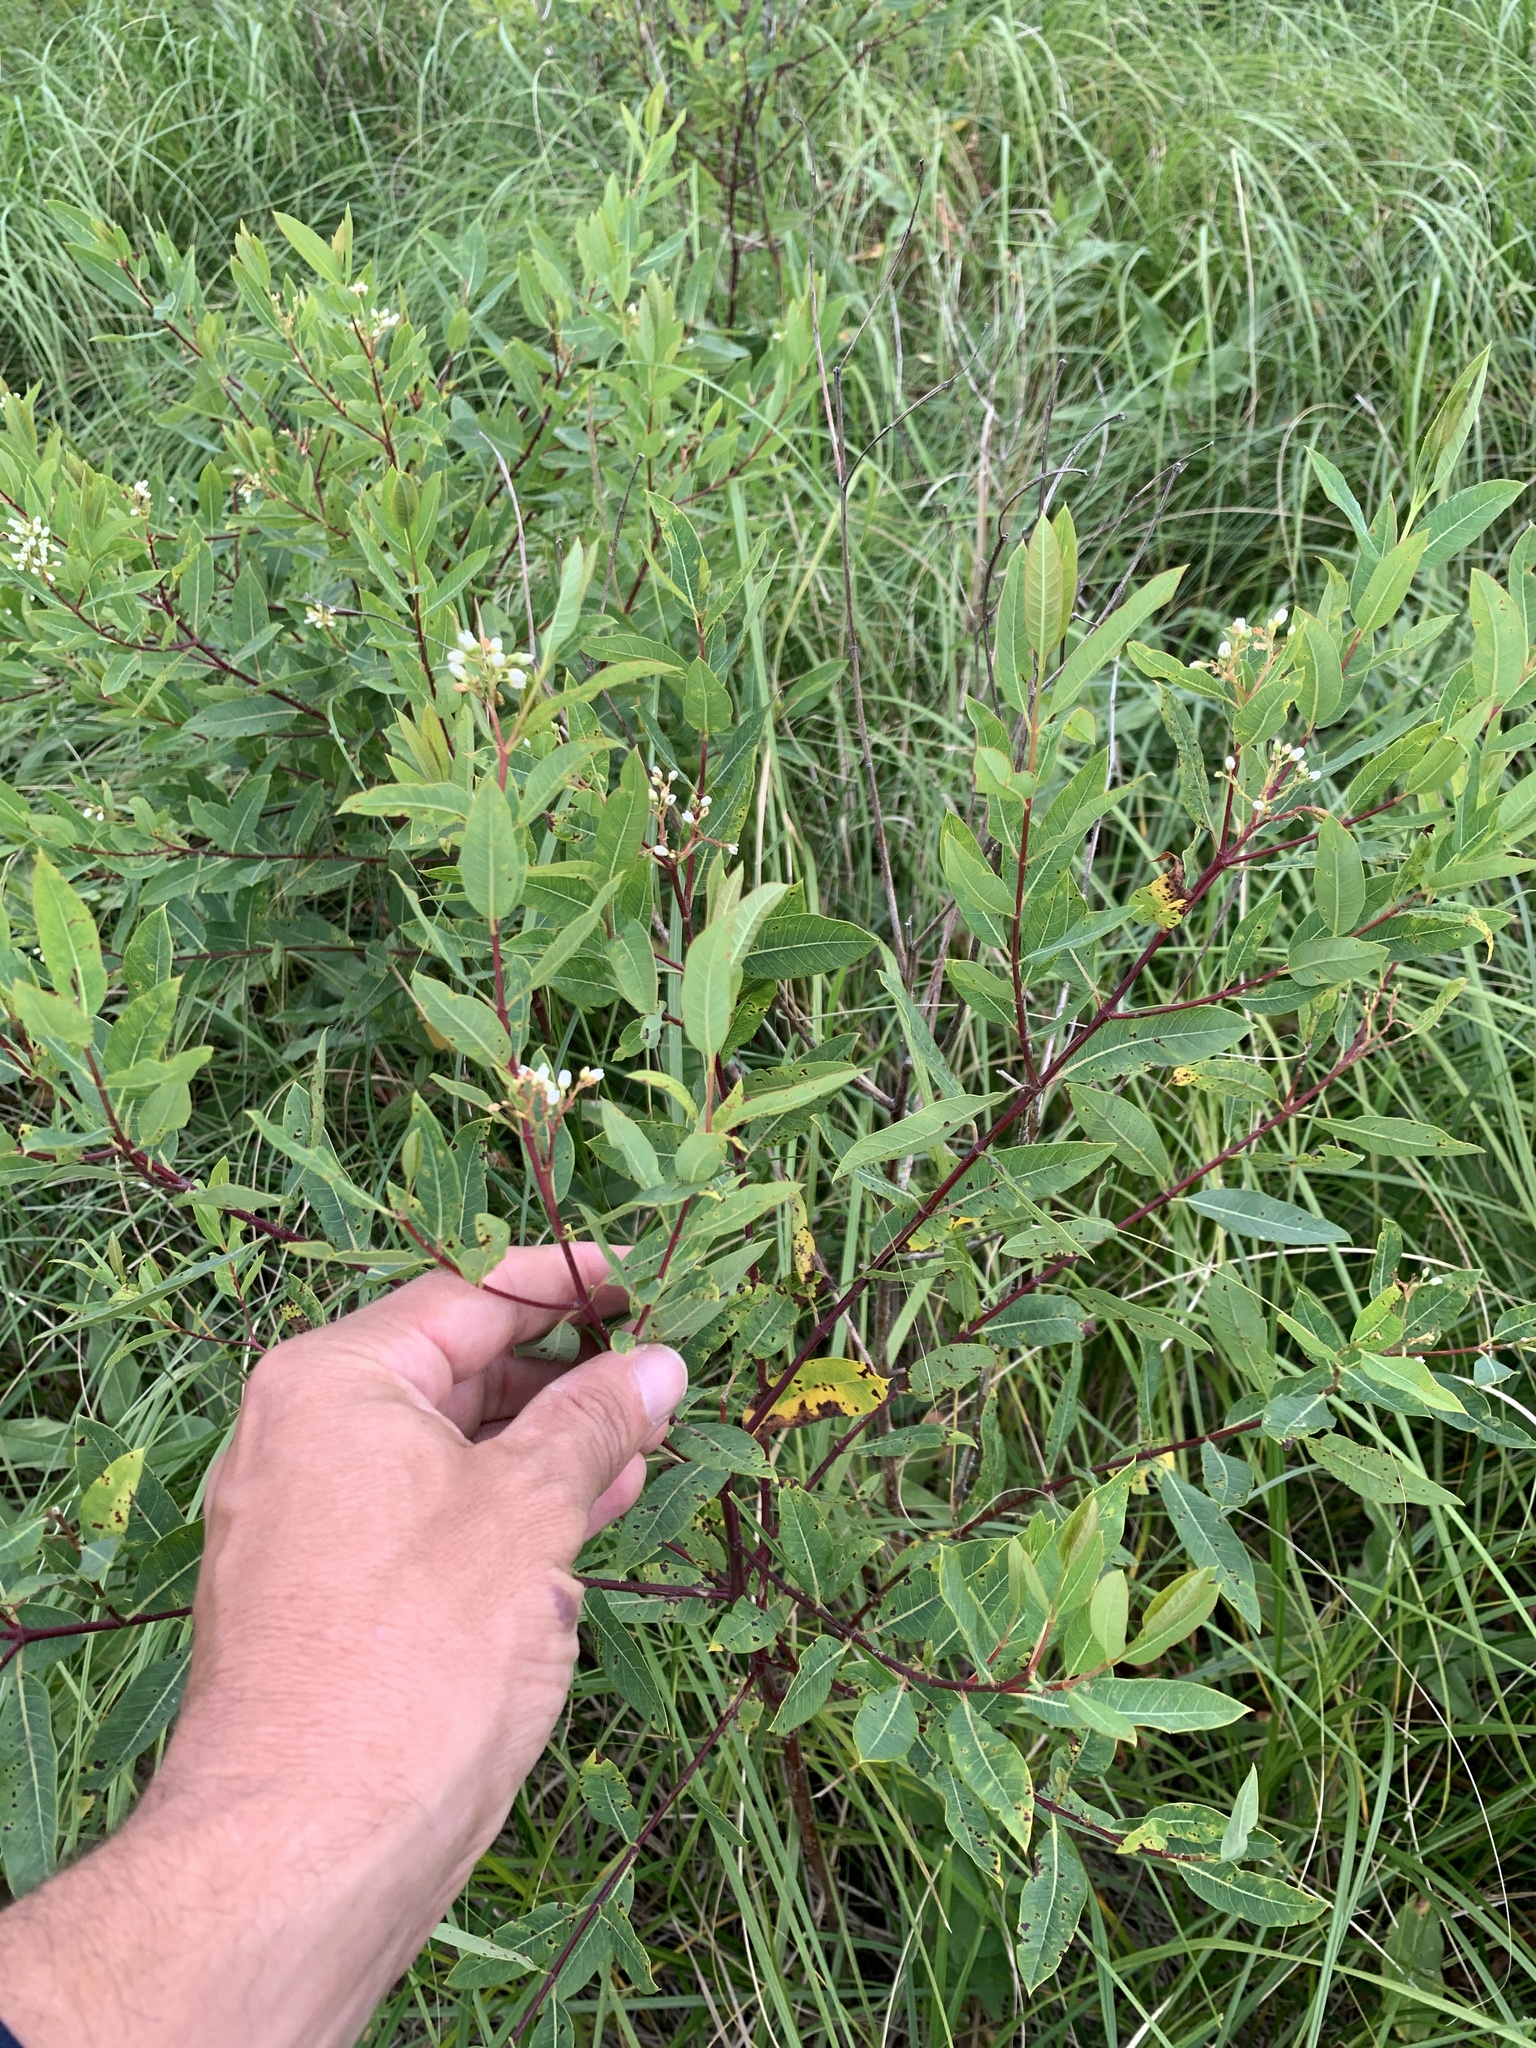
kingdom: Plantae
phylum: Tracheophyta
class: Magnoliopsida
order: Gentianales
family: Apocynaceae
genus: Apocynum
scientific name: Apocynum cannabinum
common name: Hemp dogbane
